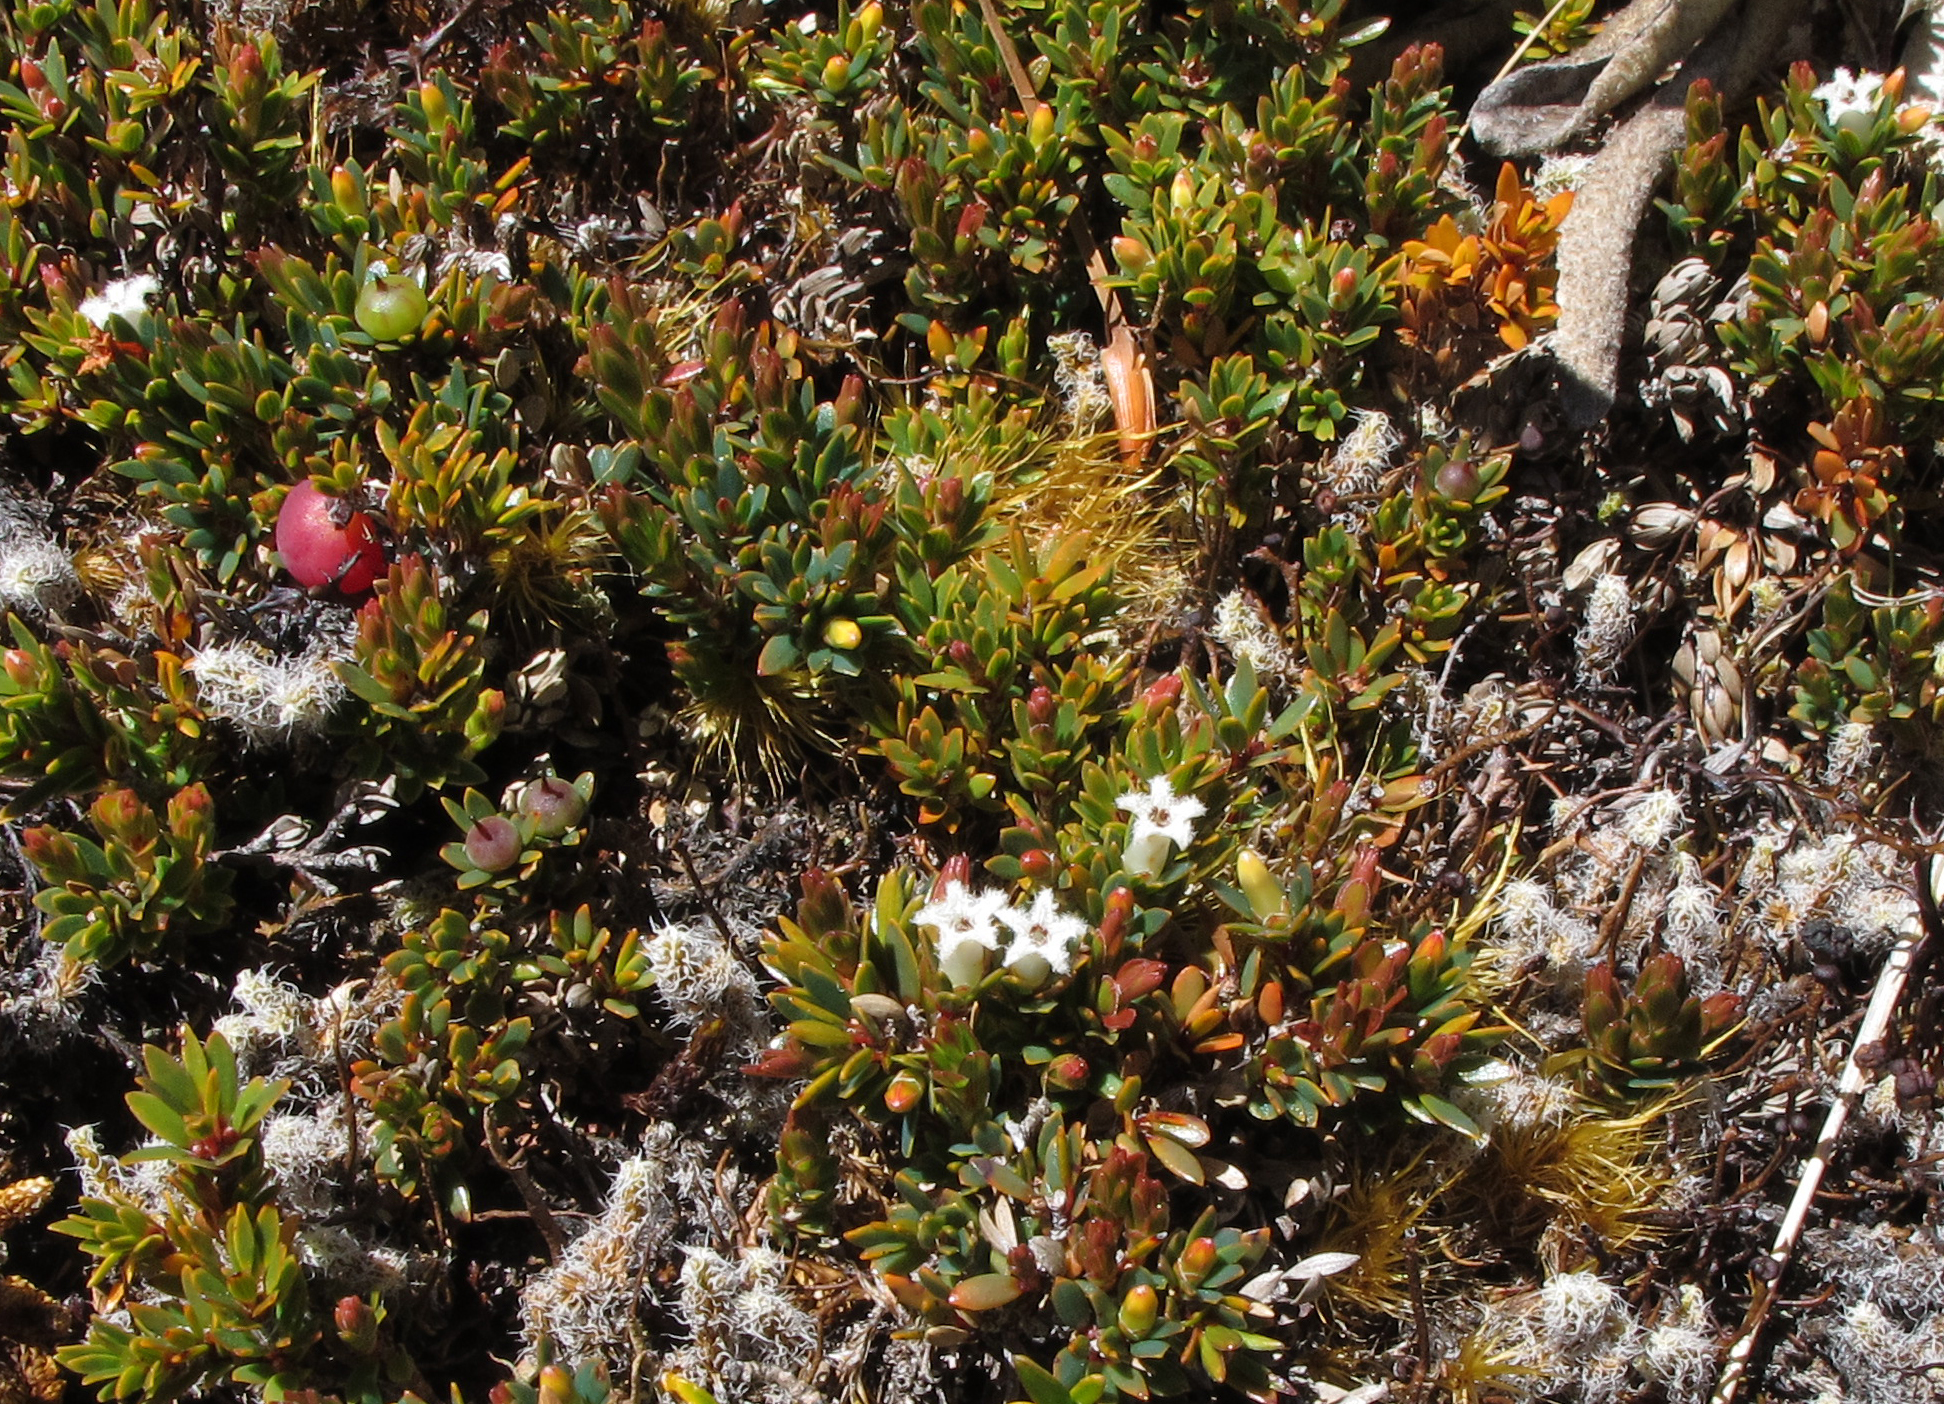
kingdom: Plantae
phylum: Tracheophyta
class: Magnoliopsida
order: Ericales
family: Ericaceae
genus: Pentachondra
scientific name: Pentachondra pumila
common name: Carpet-heath
